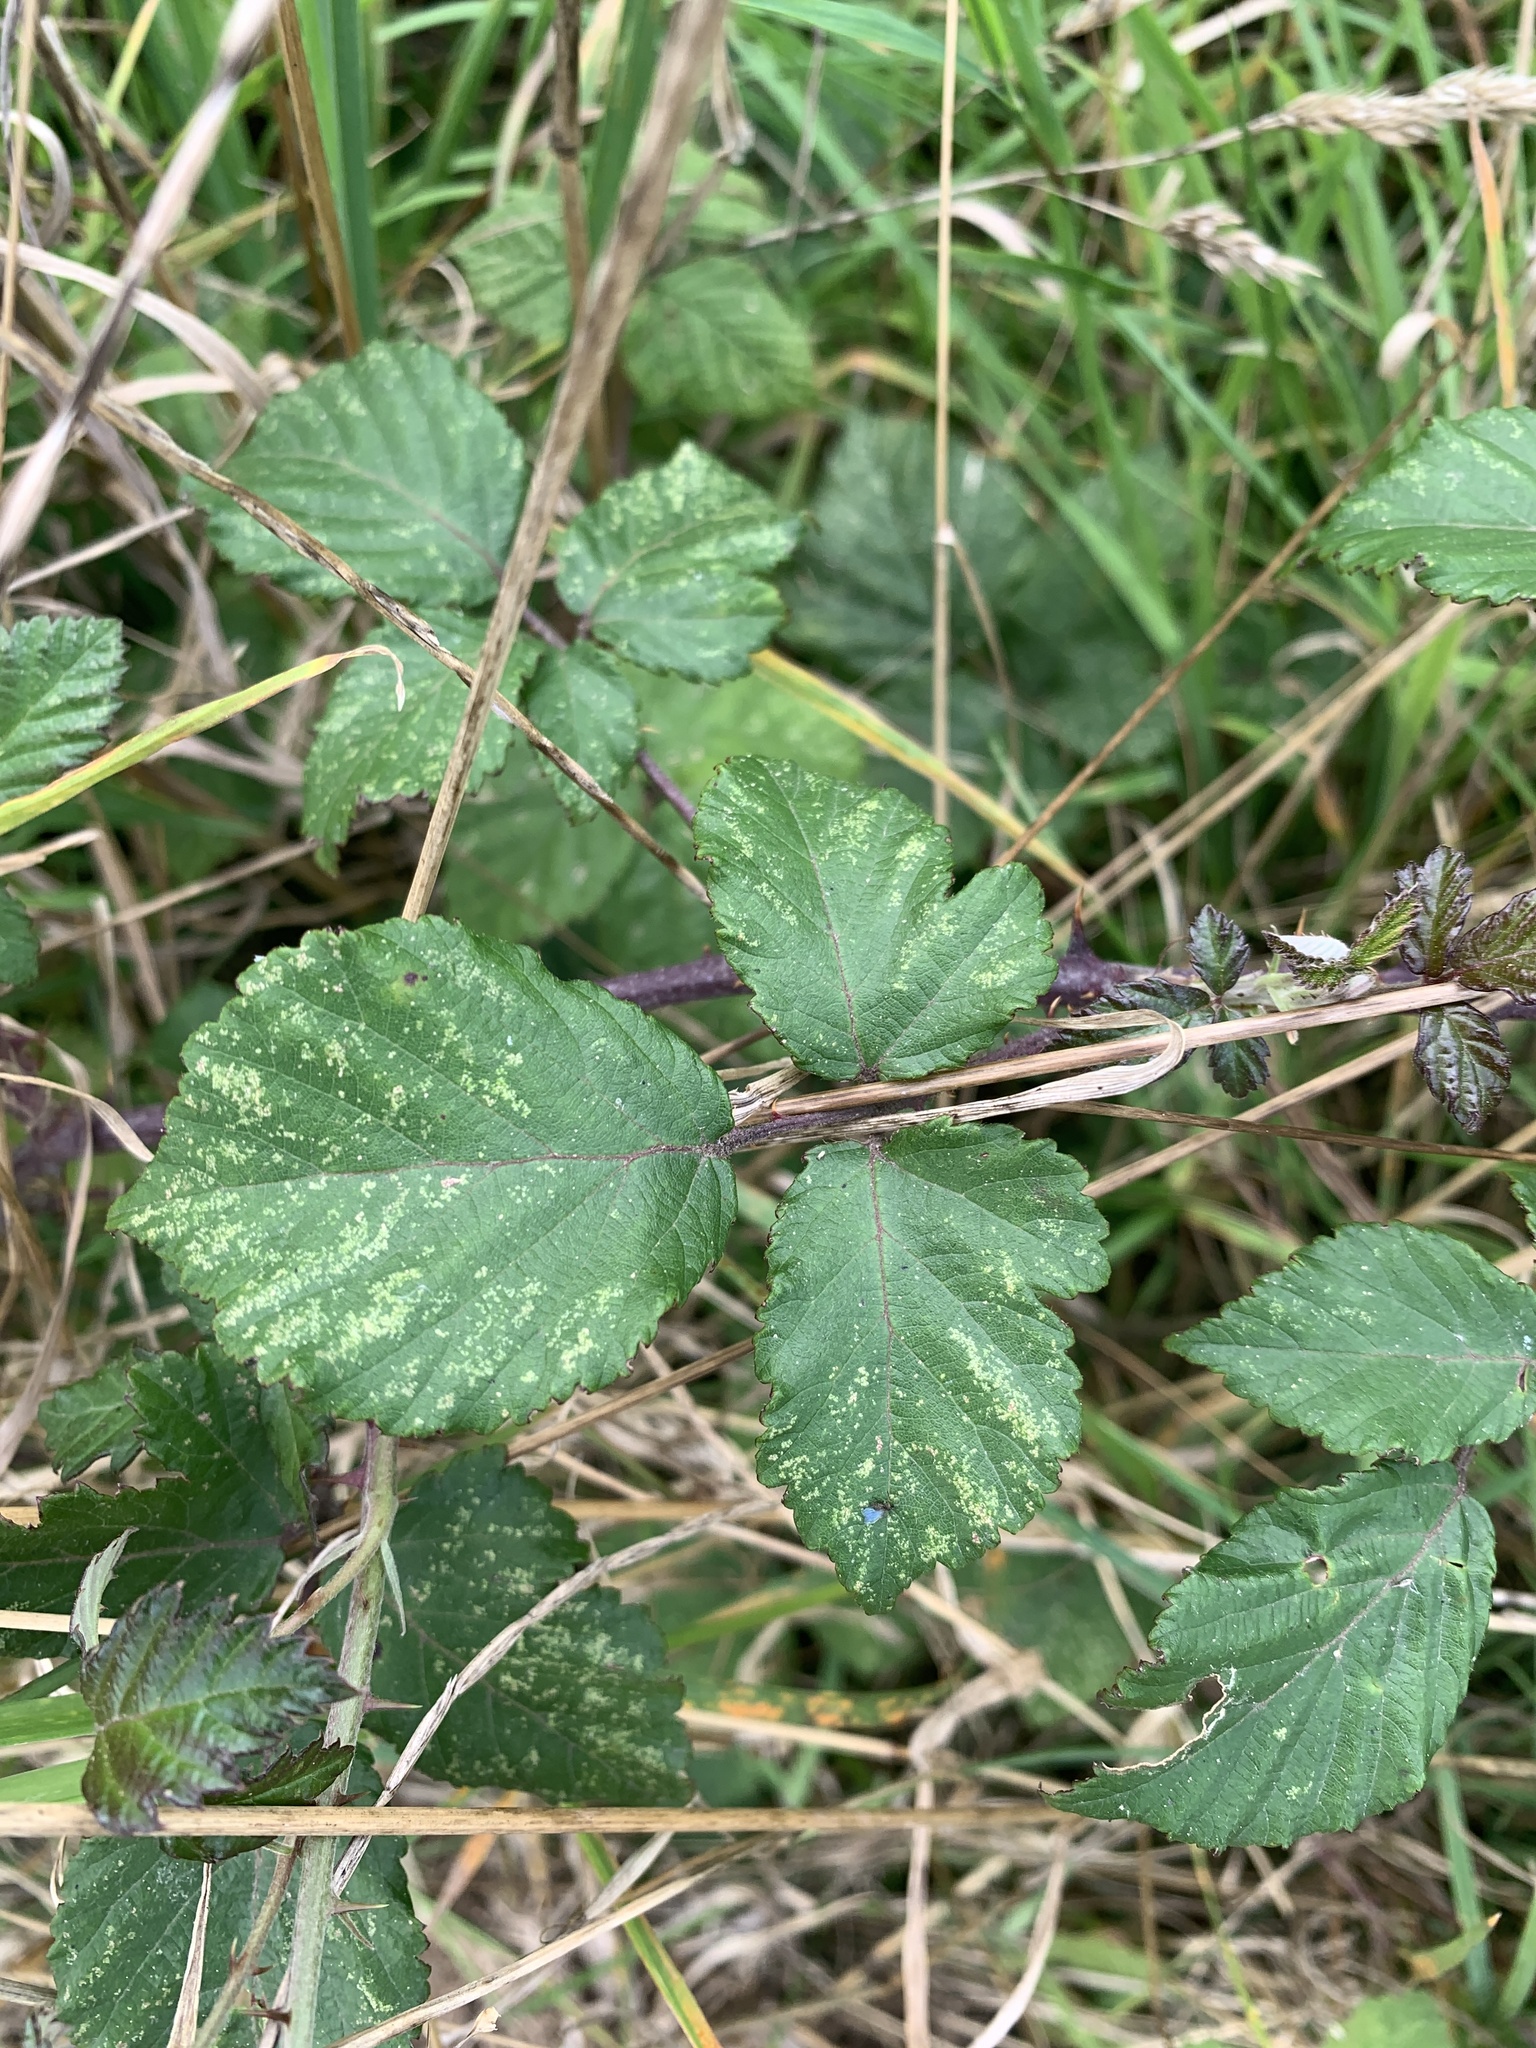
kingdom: Plantae
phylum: Tracheophyta
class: Magnoliopsida
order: Rosales
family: Rosaceae
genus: Rubus
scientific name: Rubus fruticosus
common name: Blackberry, bramble
